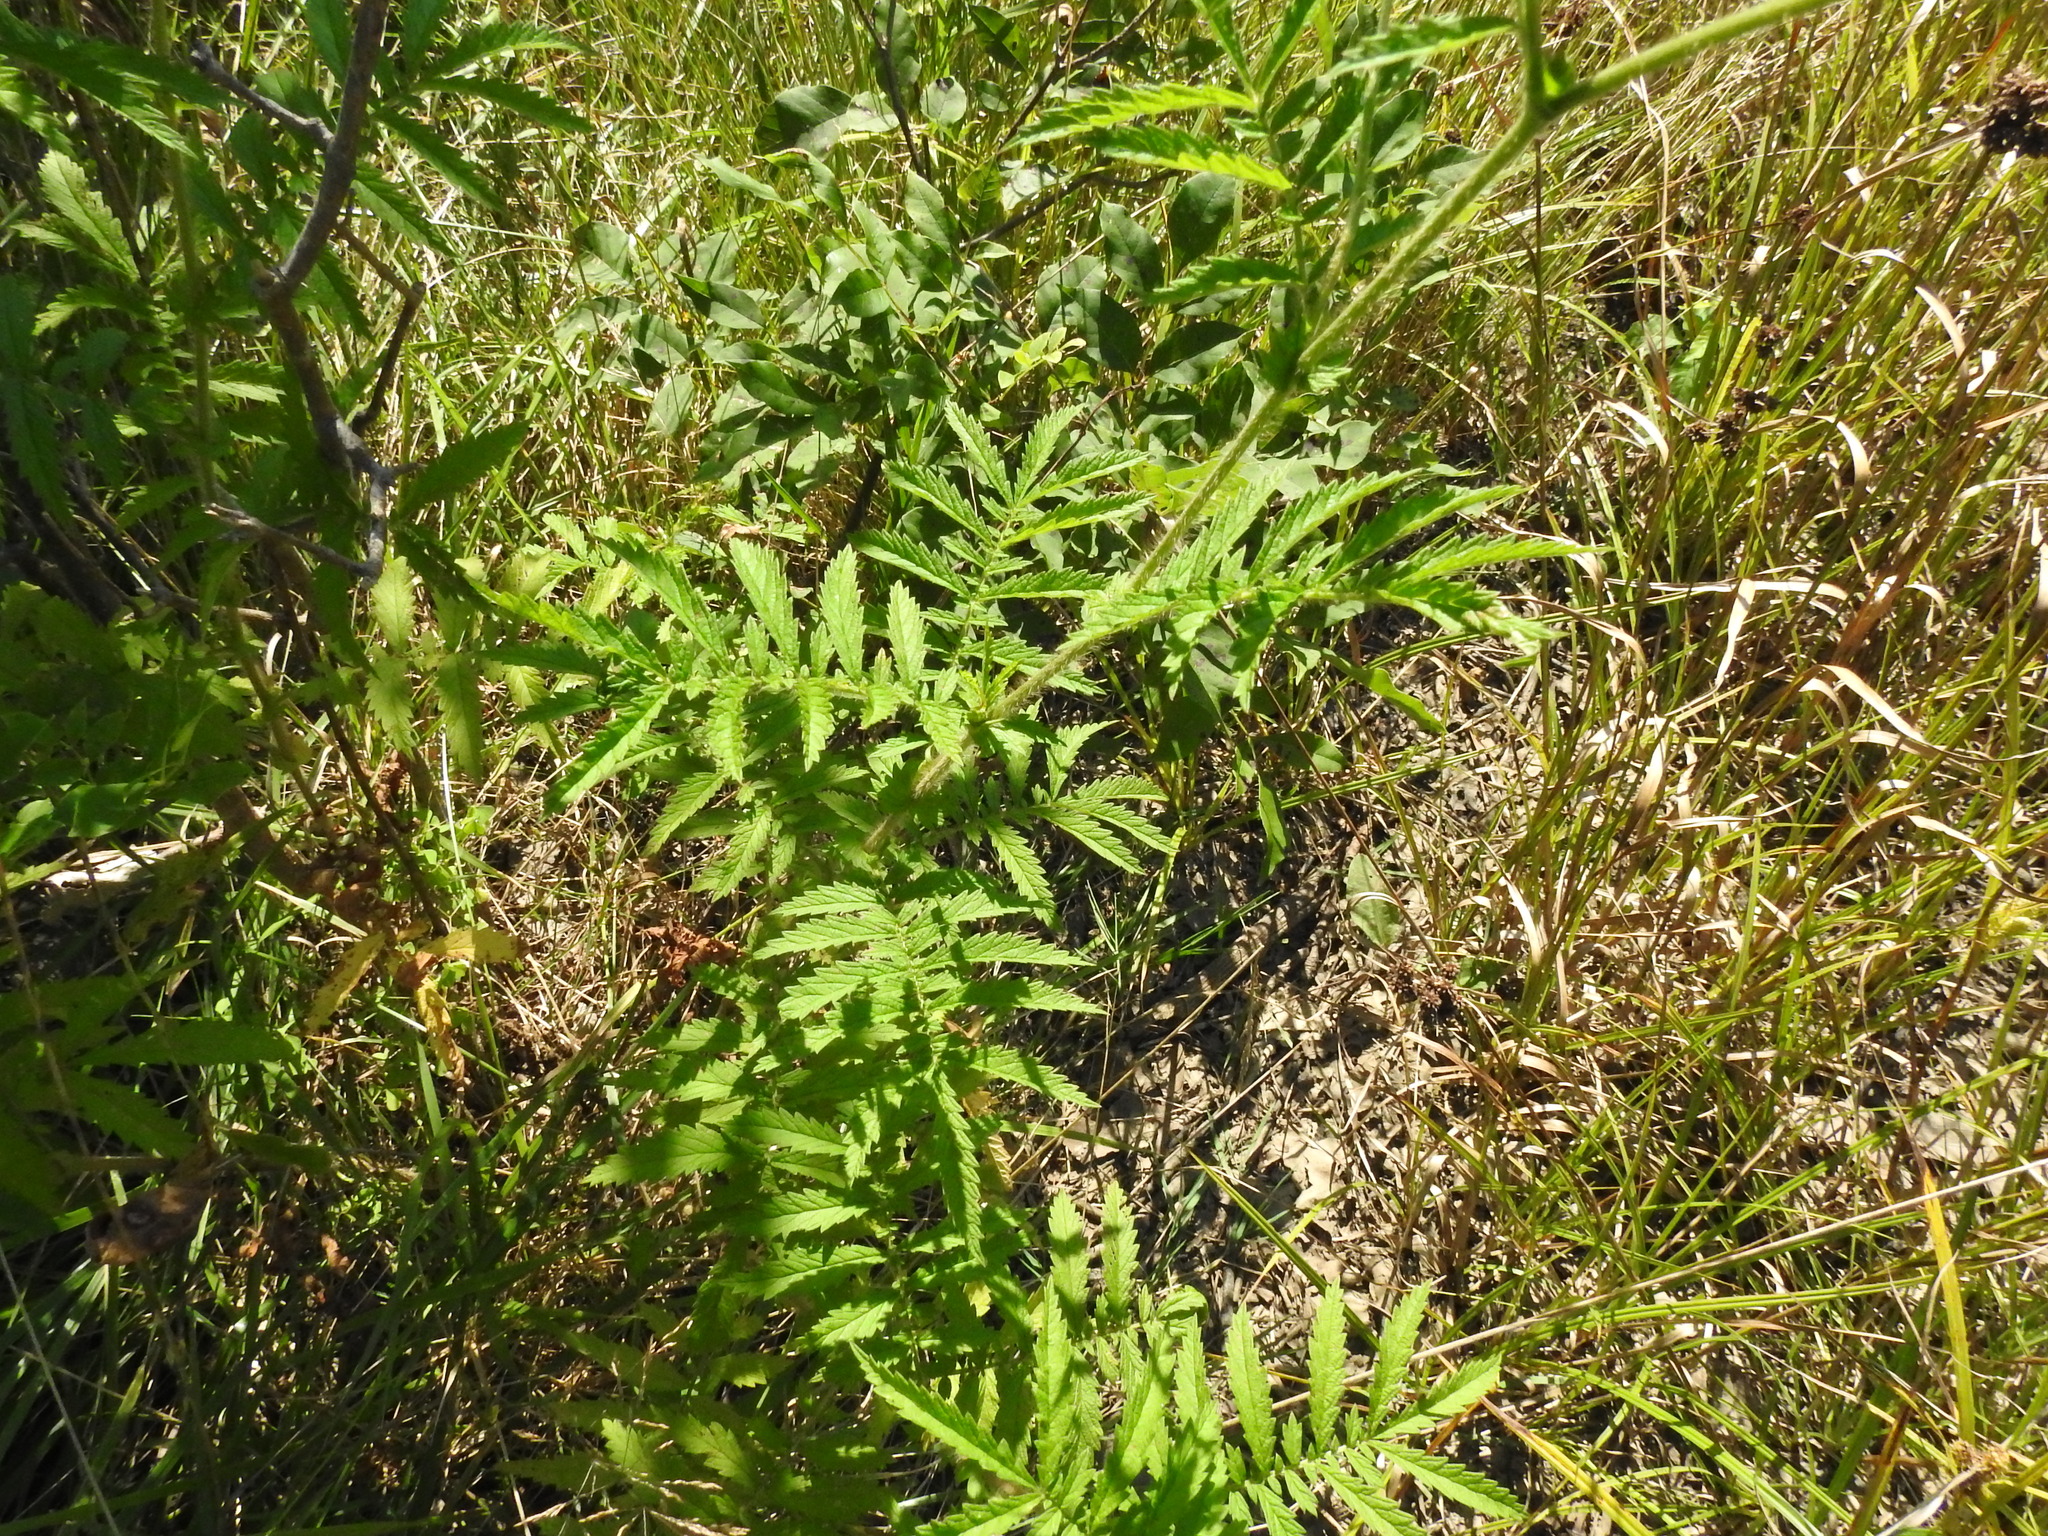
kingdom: Plantae
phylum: Tracheophyta
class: Magnoliopsida
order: Rosales
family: Rosaceae
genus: Agrimonia
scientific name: Agrimonia parviflora
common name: Harvest-lice
